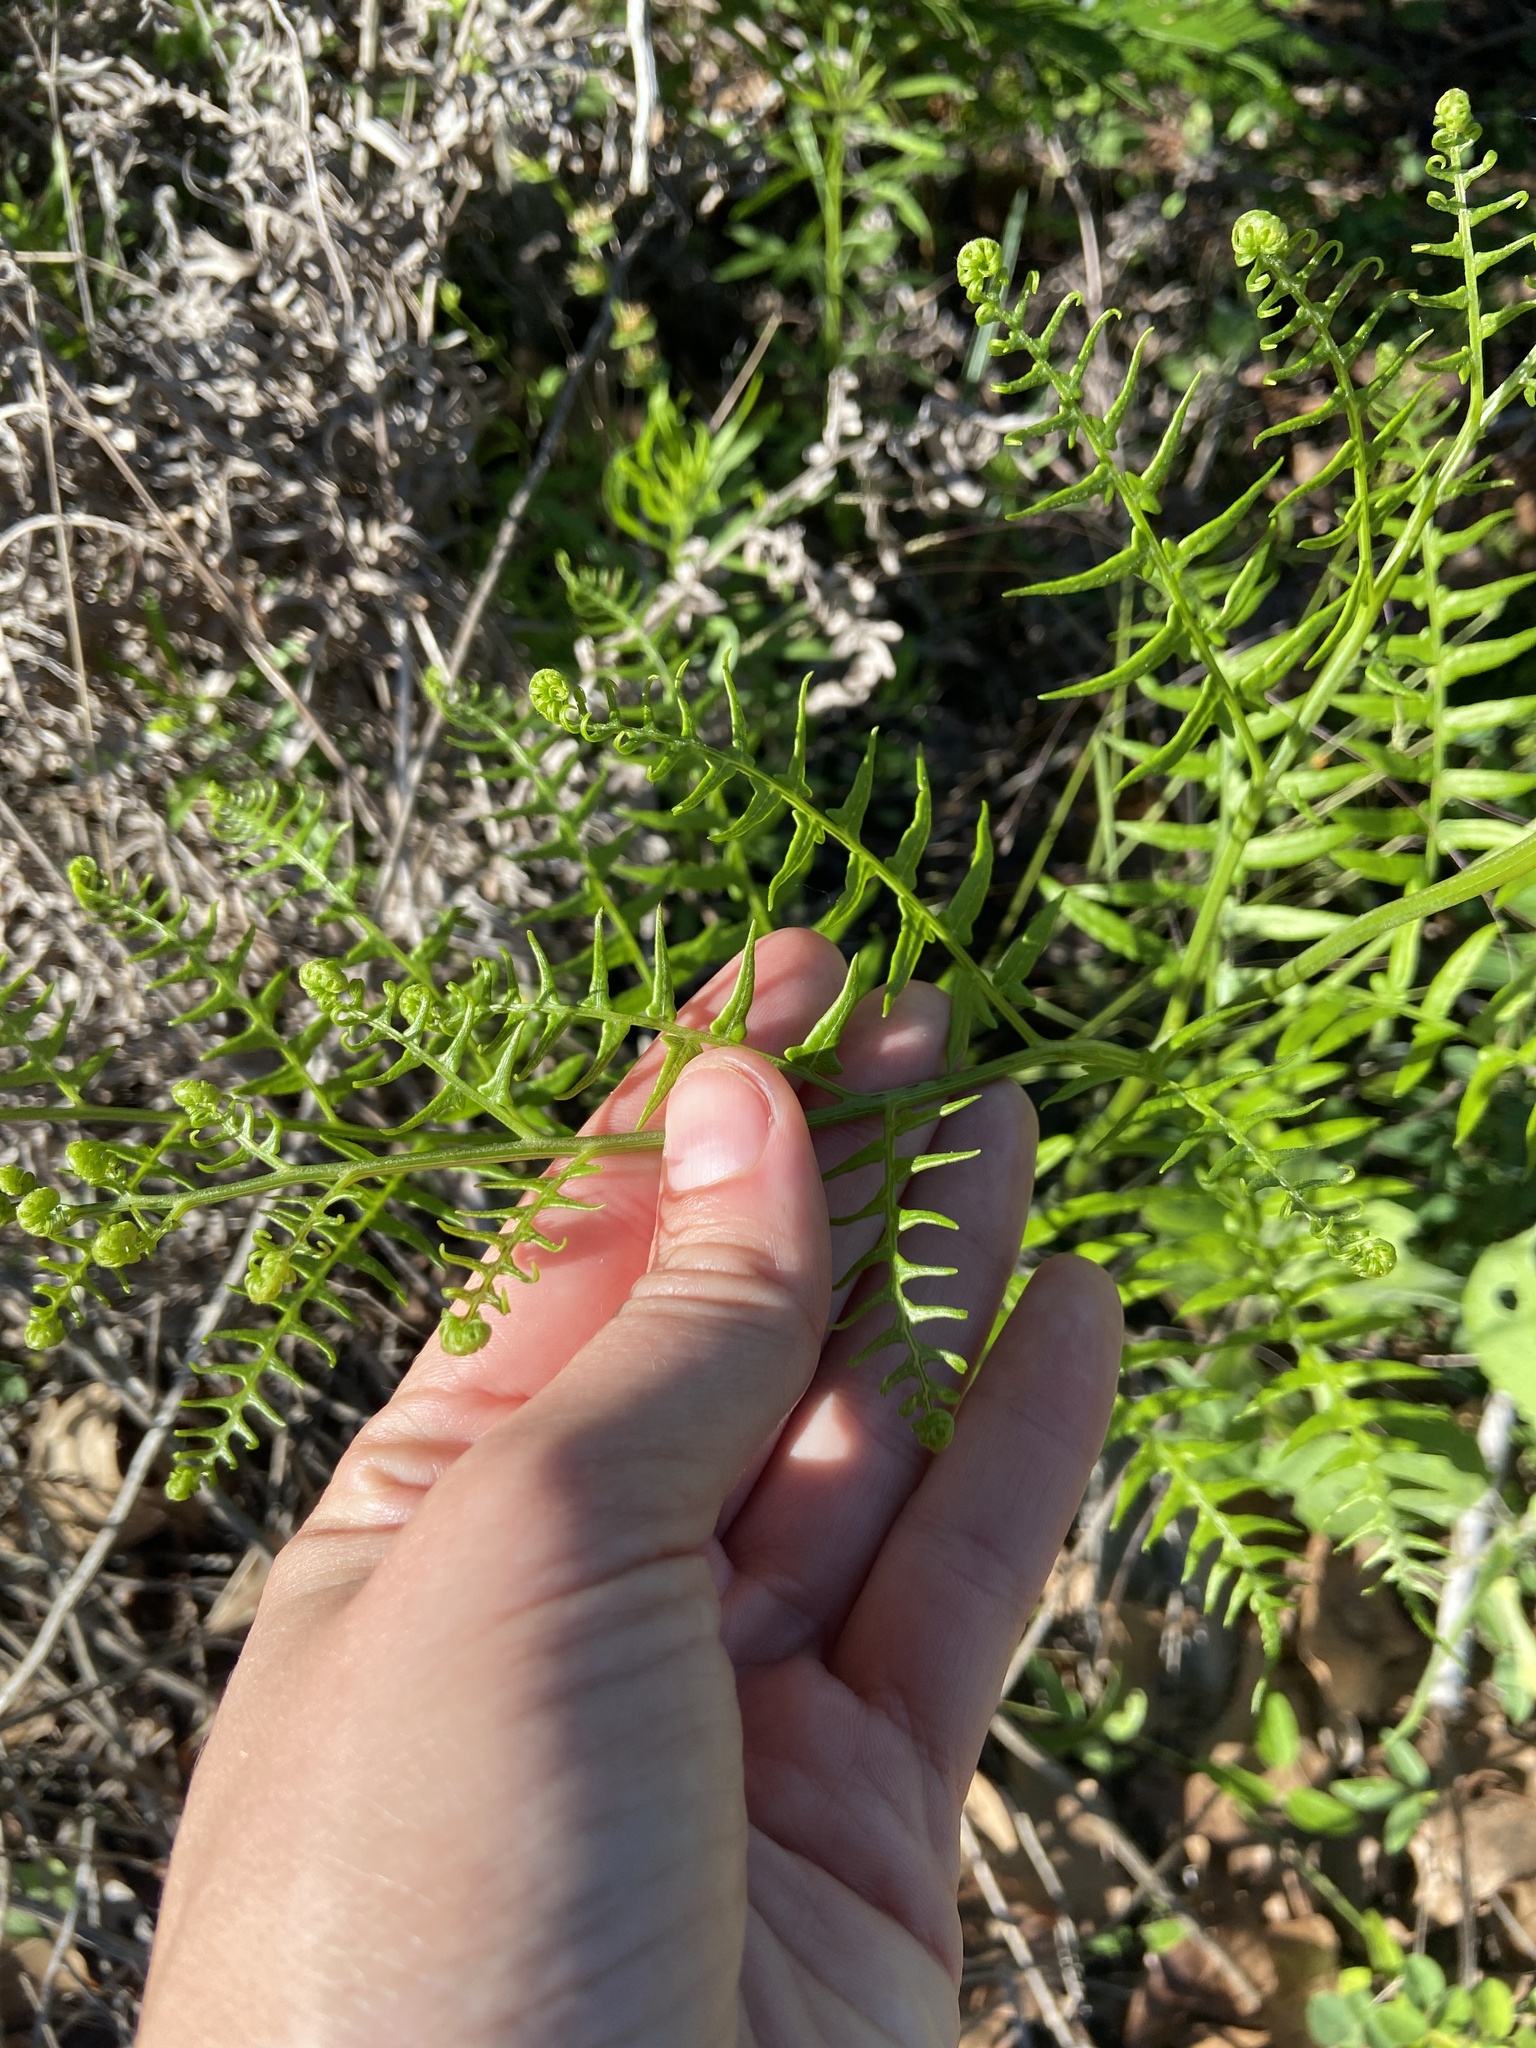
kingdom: Plantae
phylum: Tracheophyta
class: Polypodiopsida
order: Polypodiales
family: Dennstaedtiaceae
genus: Pteridium
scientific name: Pteridium aquilinum
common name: Bracken
